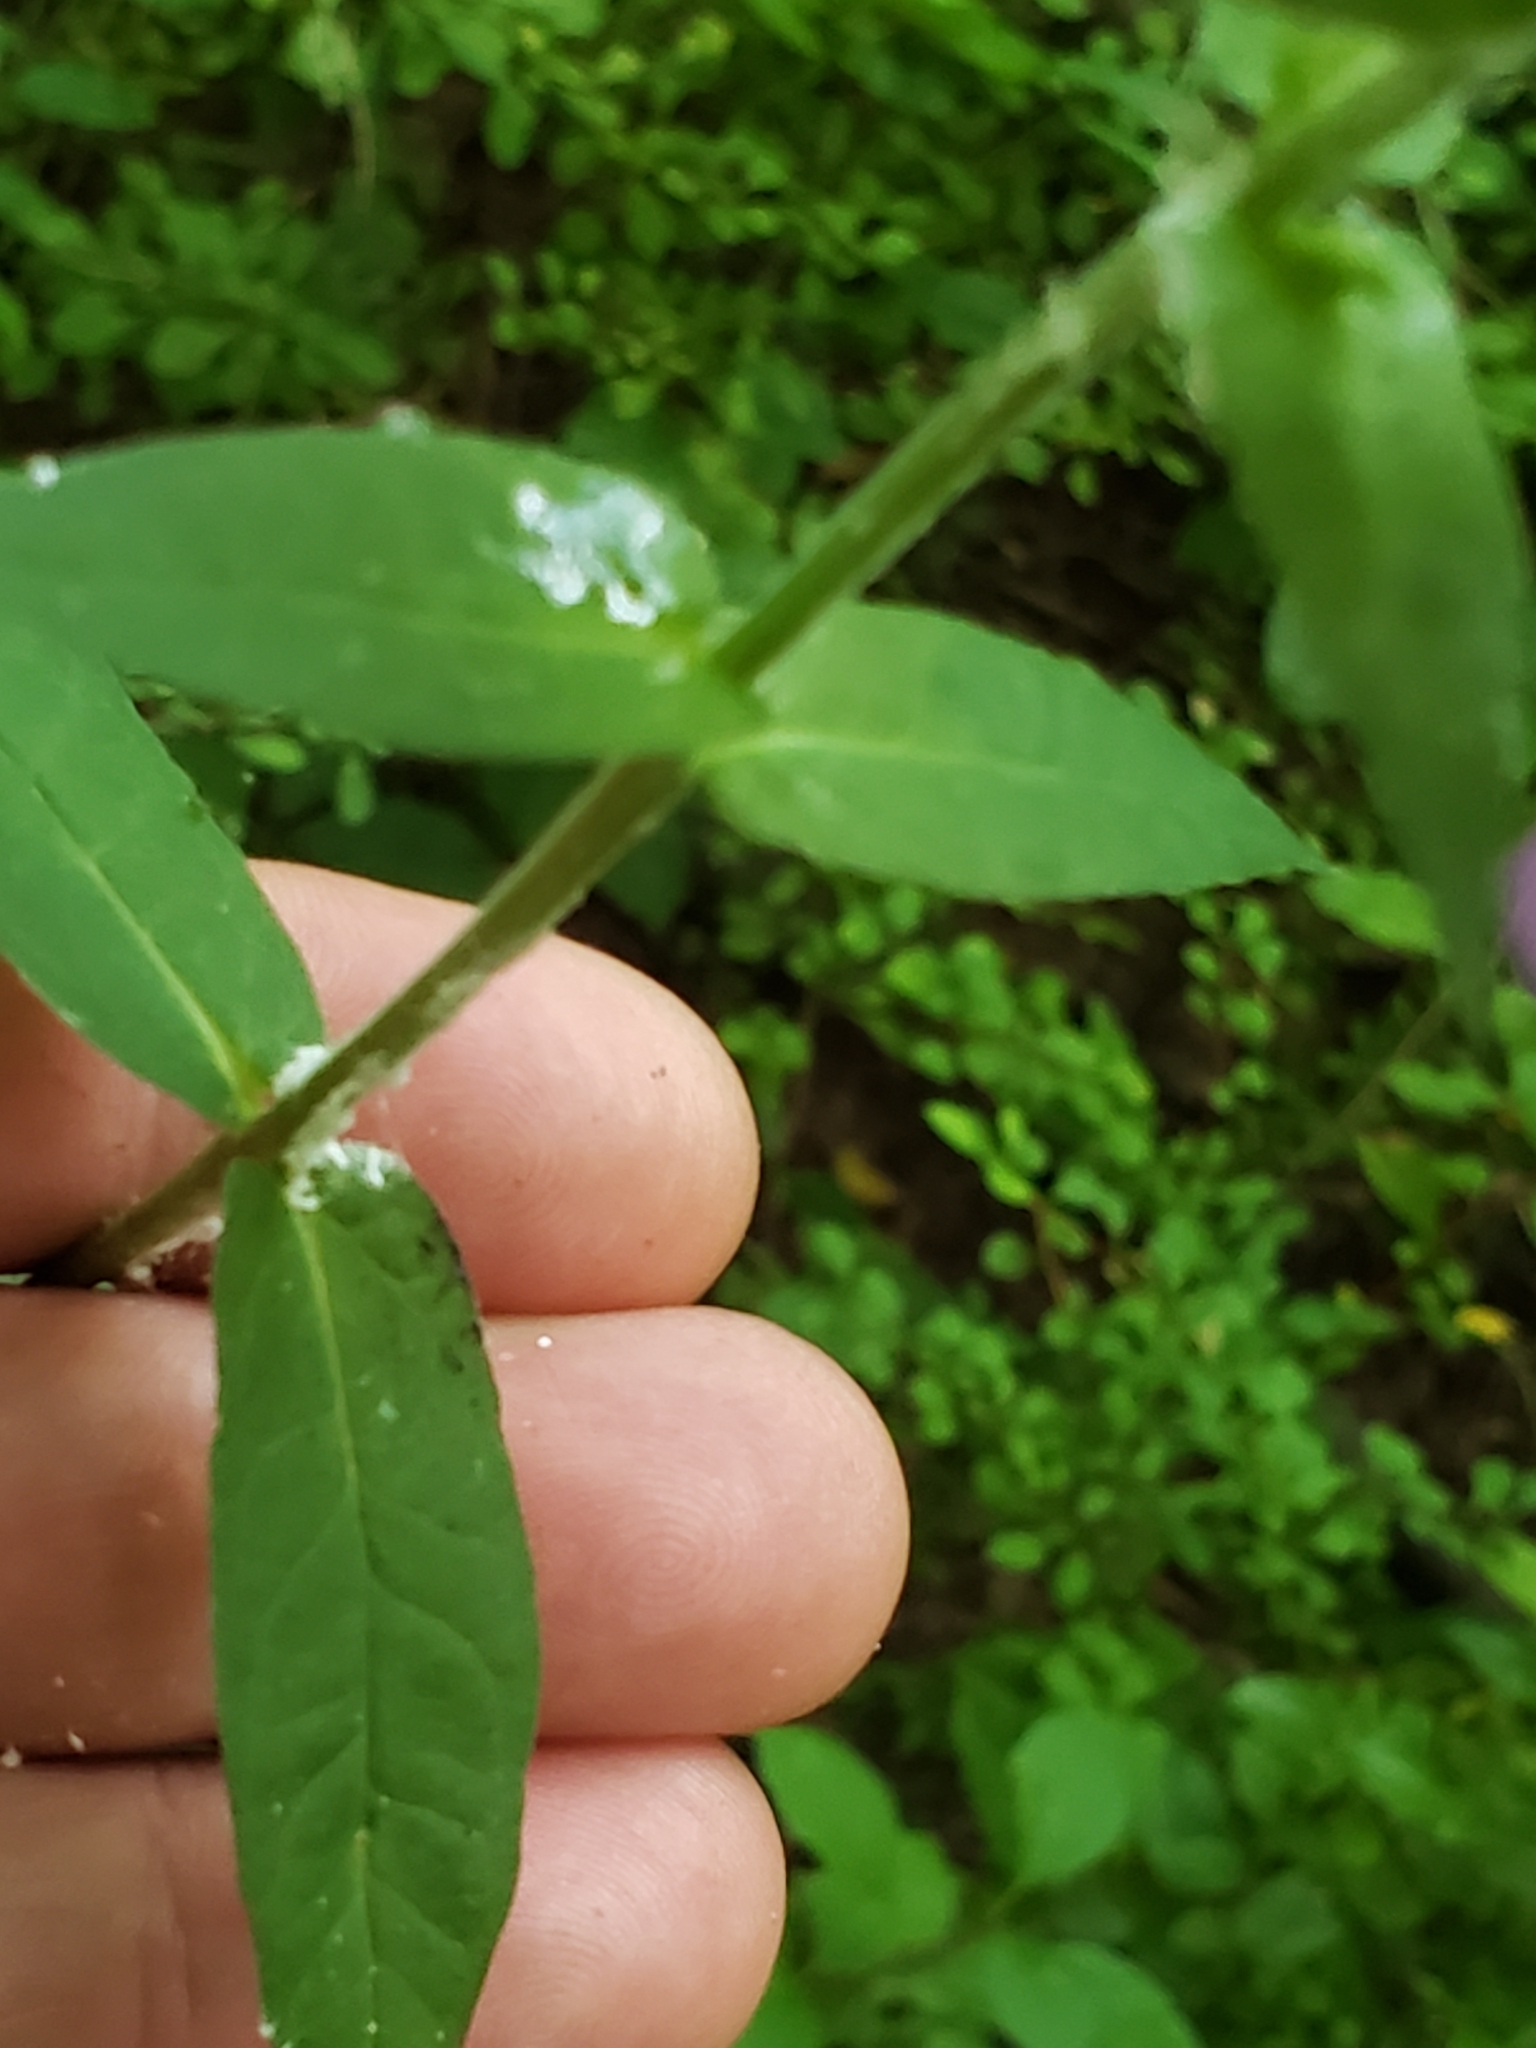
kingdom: Plantae
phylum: Tracheophyta
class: Magnoliopsida
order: Ericales
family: Polemoniaceae
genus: Phlox
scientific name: Phlox paniculata
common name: Fall phlox
